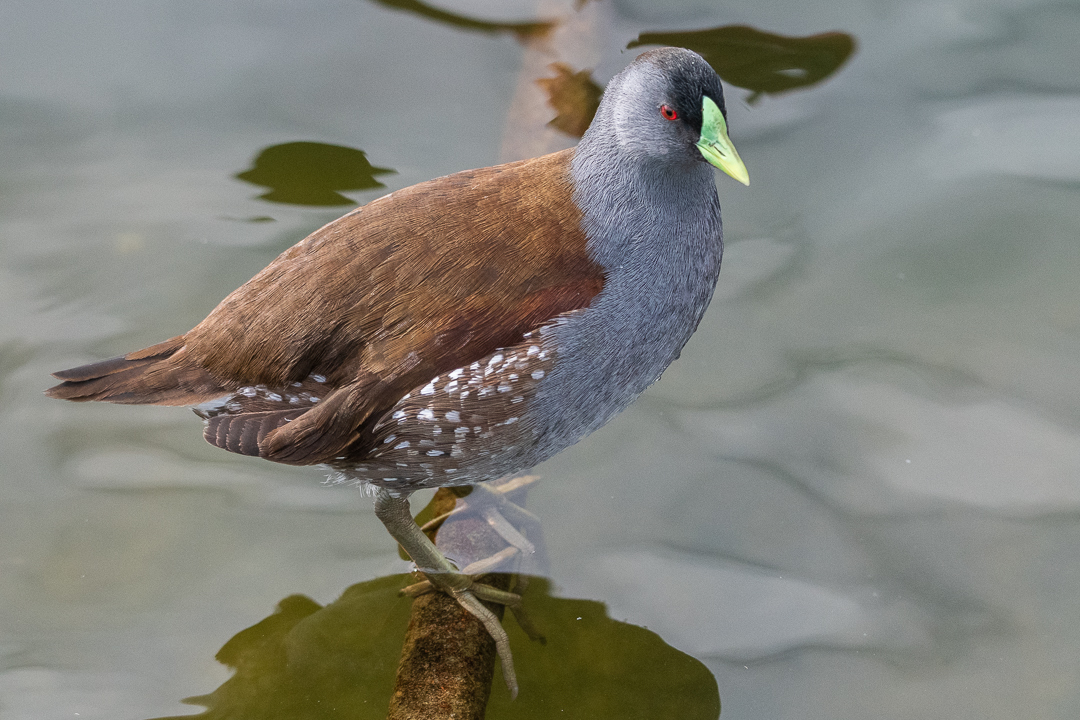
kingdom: Animalia
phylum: Chordata
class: Aves
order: Gruiformes
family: Rallidae
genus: Gallinula
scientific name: Gallinula melanops
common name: Spot-flanked gallinule
